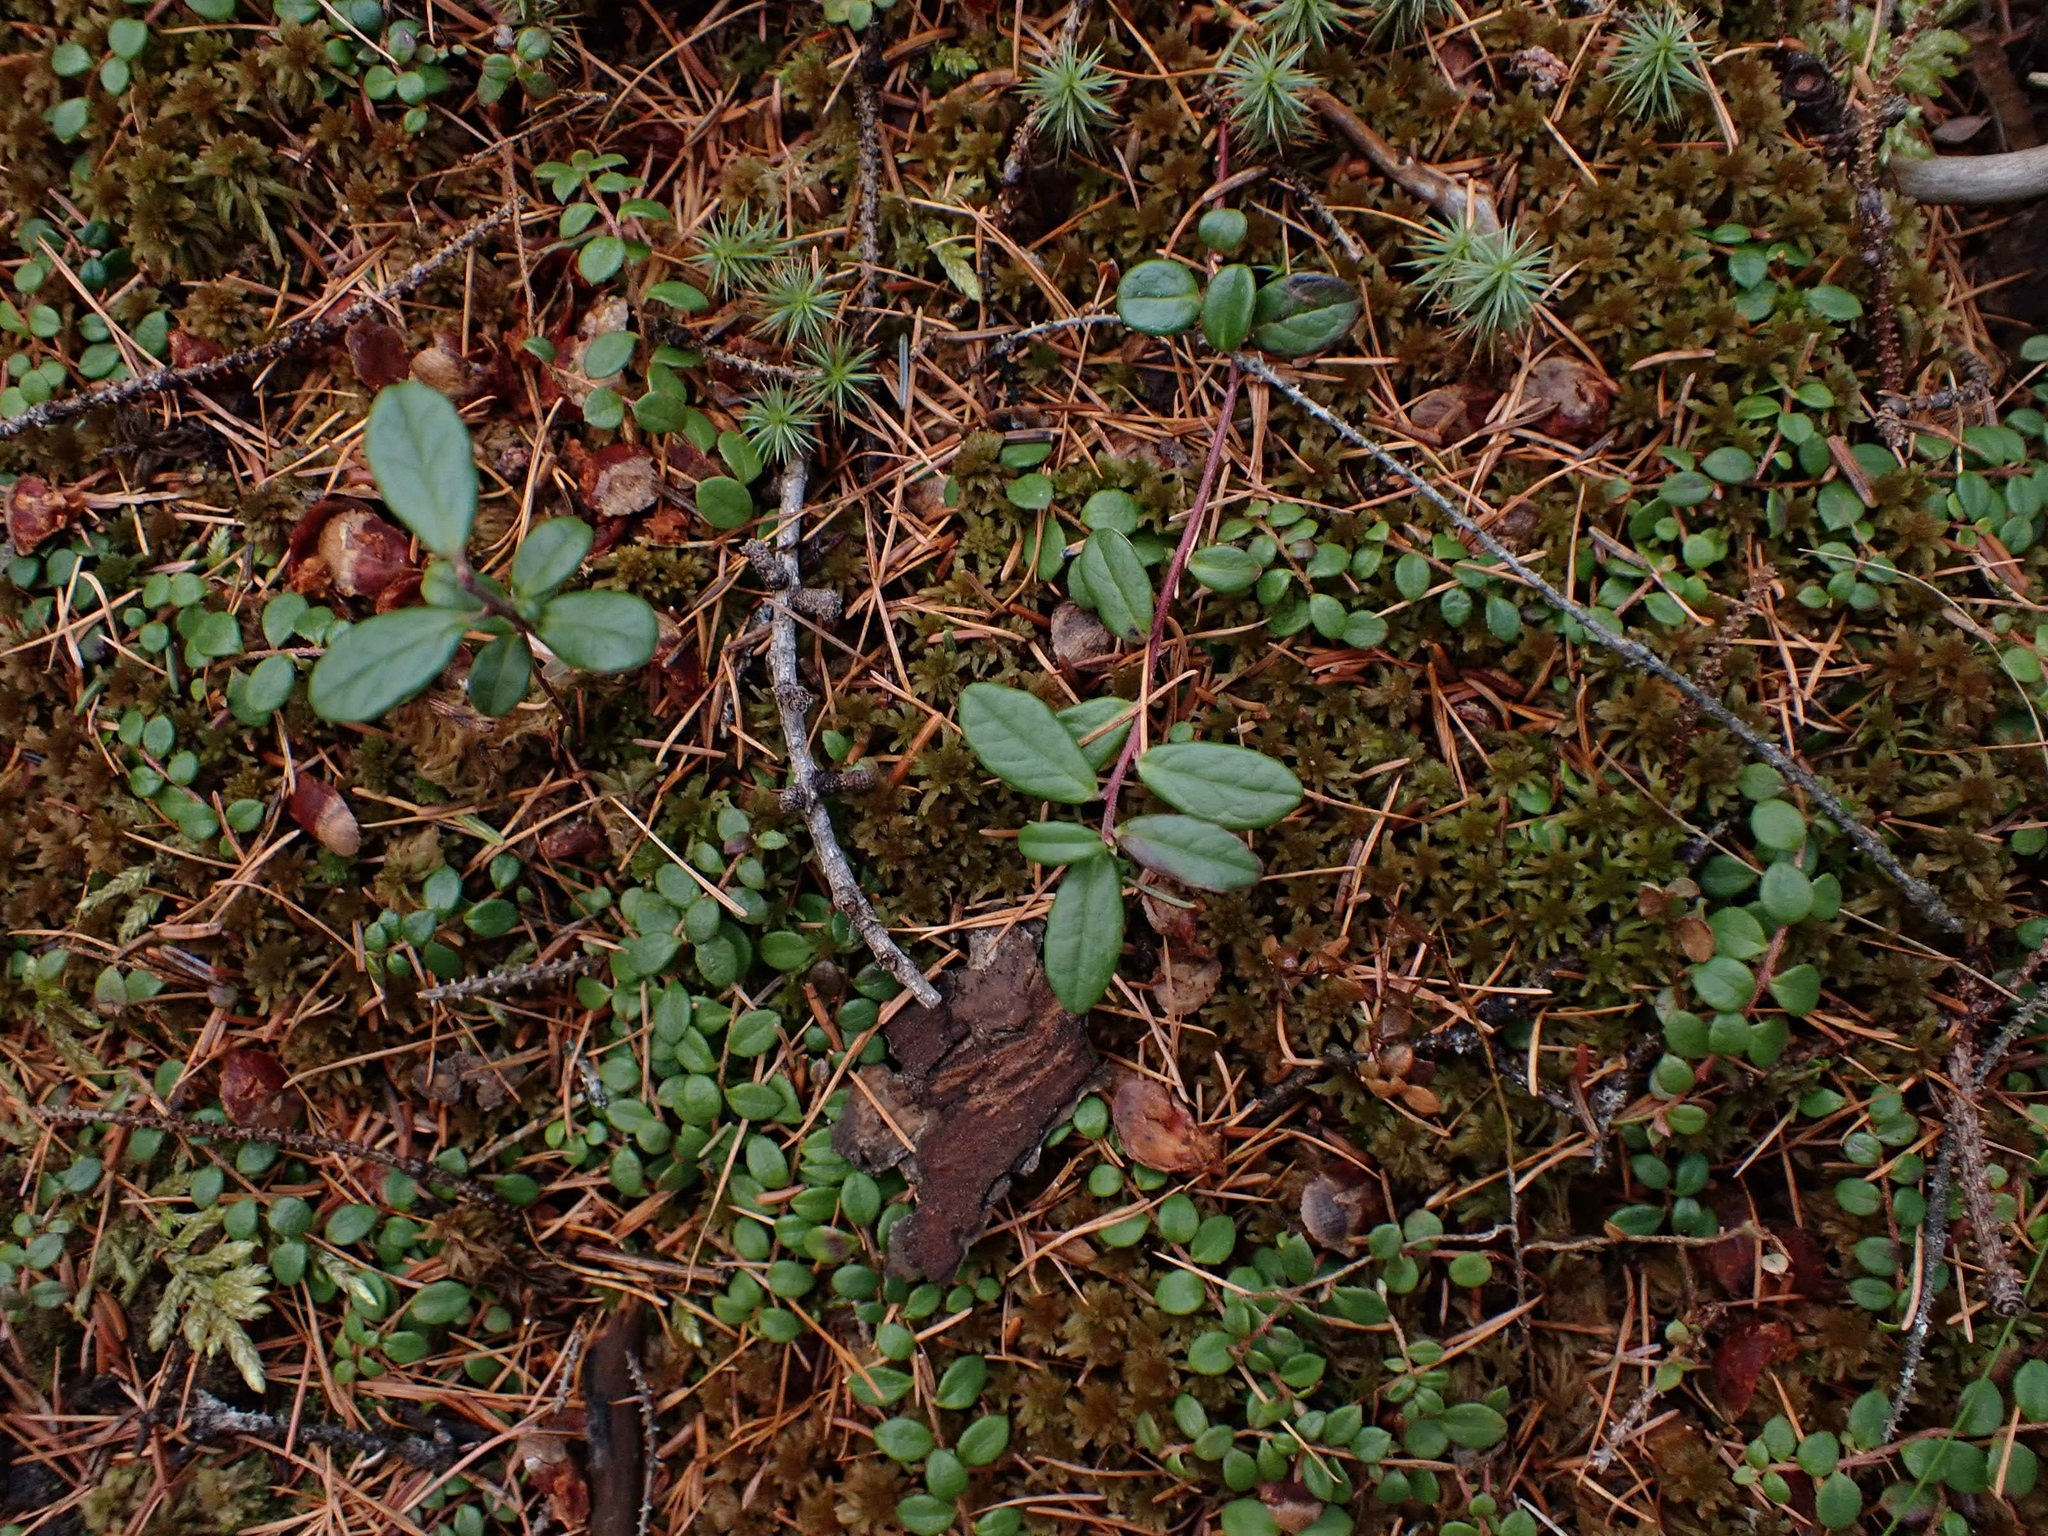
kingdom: Plantae
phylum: Tracheophyta
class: Magnoliopsida
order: Ericales
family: Ericaceae
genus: Vaccinium
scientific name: Vaccinium vitis-idaea
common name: Cowberry
